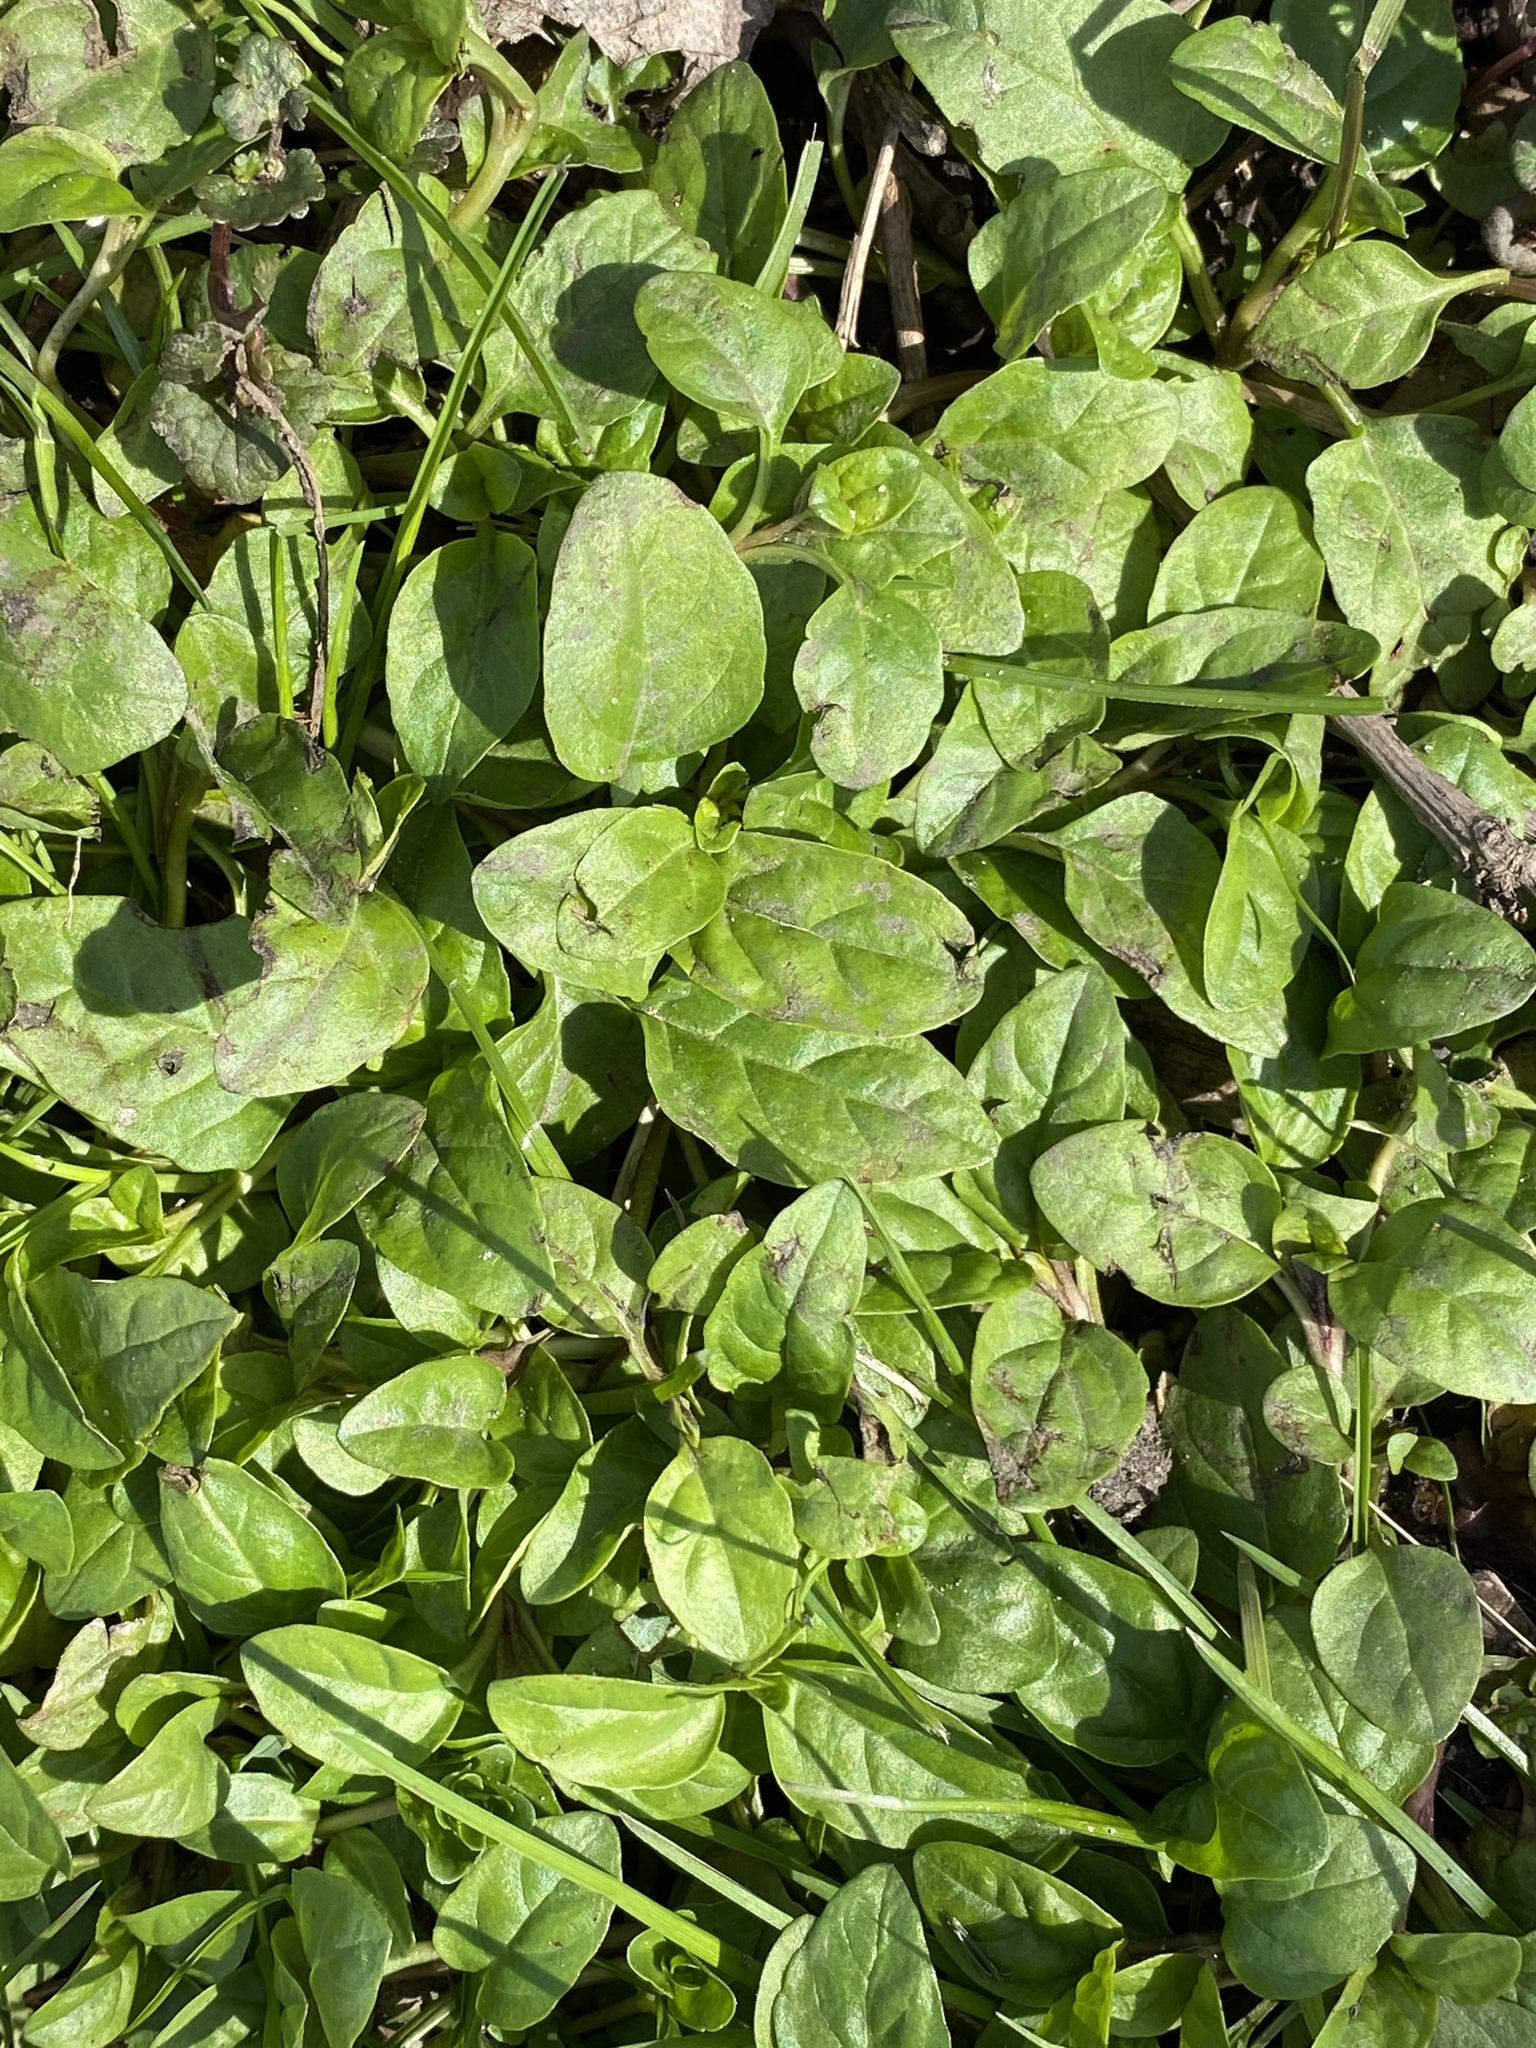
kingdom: Plantae
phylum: Tracheophyta
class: Magnoliopsida
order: Lamiales
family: Lamiaceae
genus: Prunella
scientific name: Prunella vulgaris
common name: Heal-all
